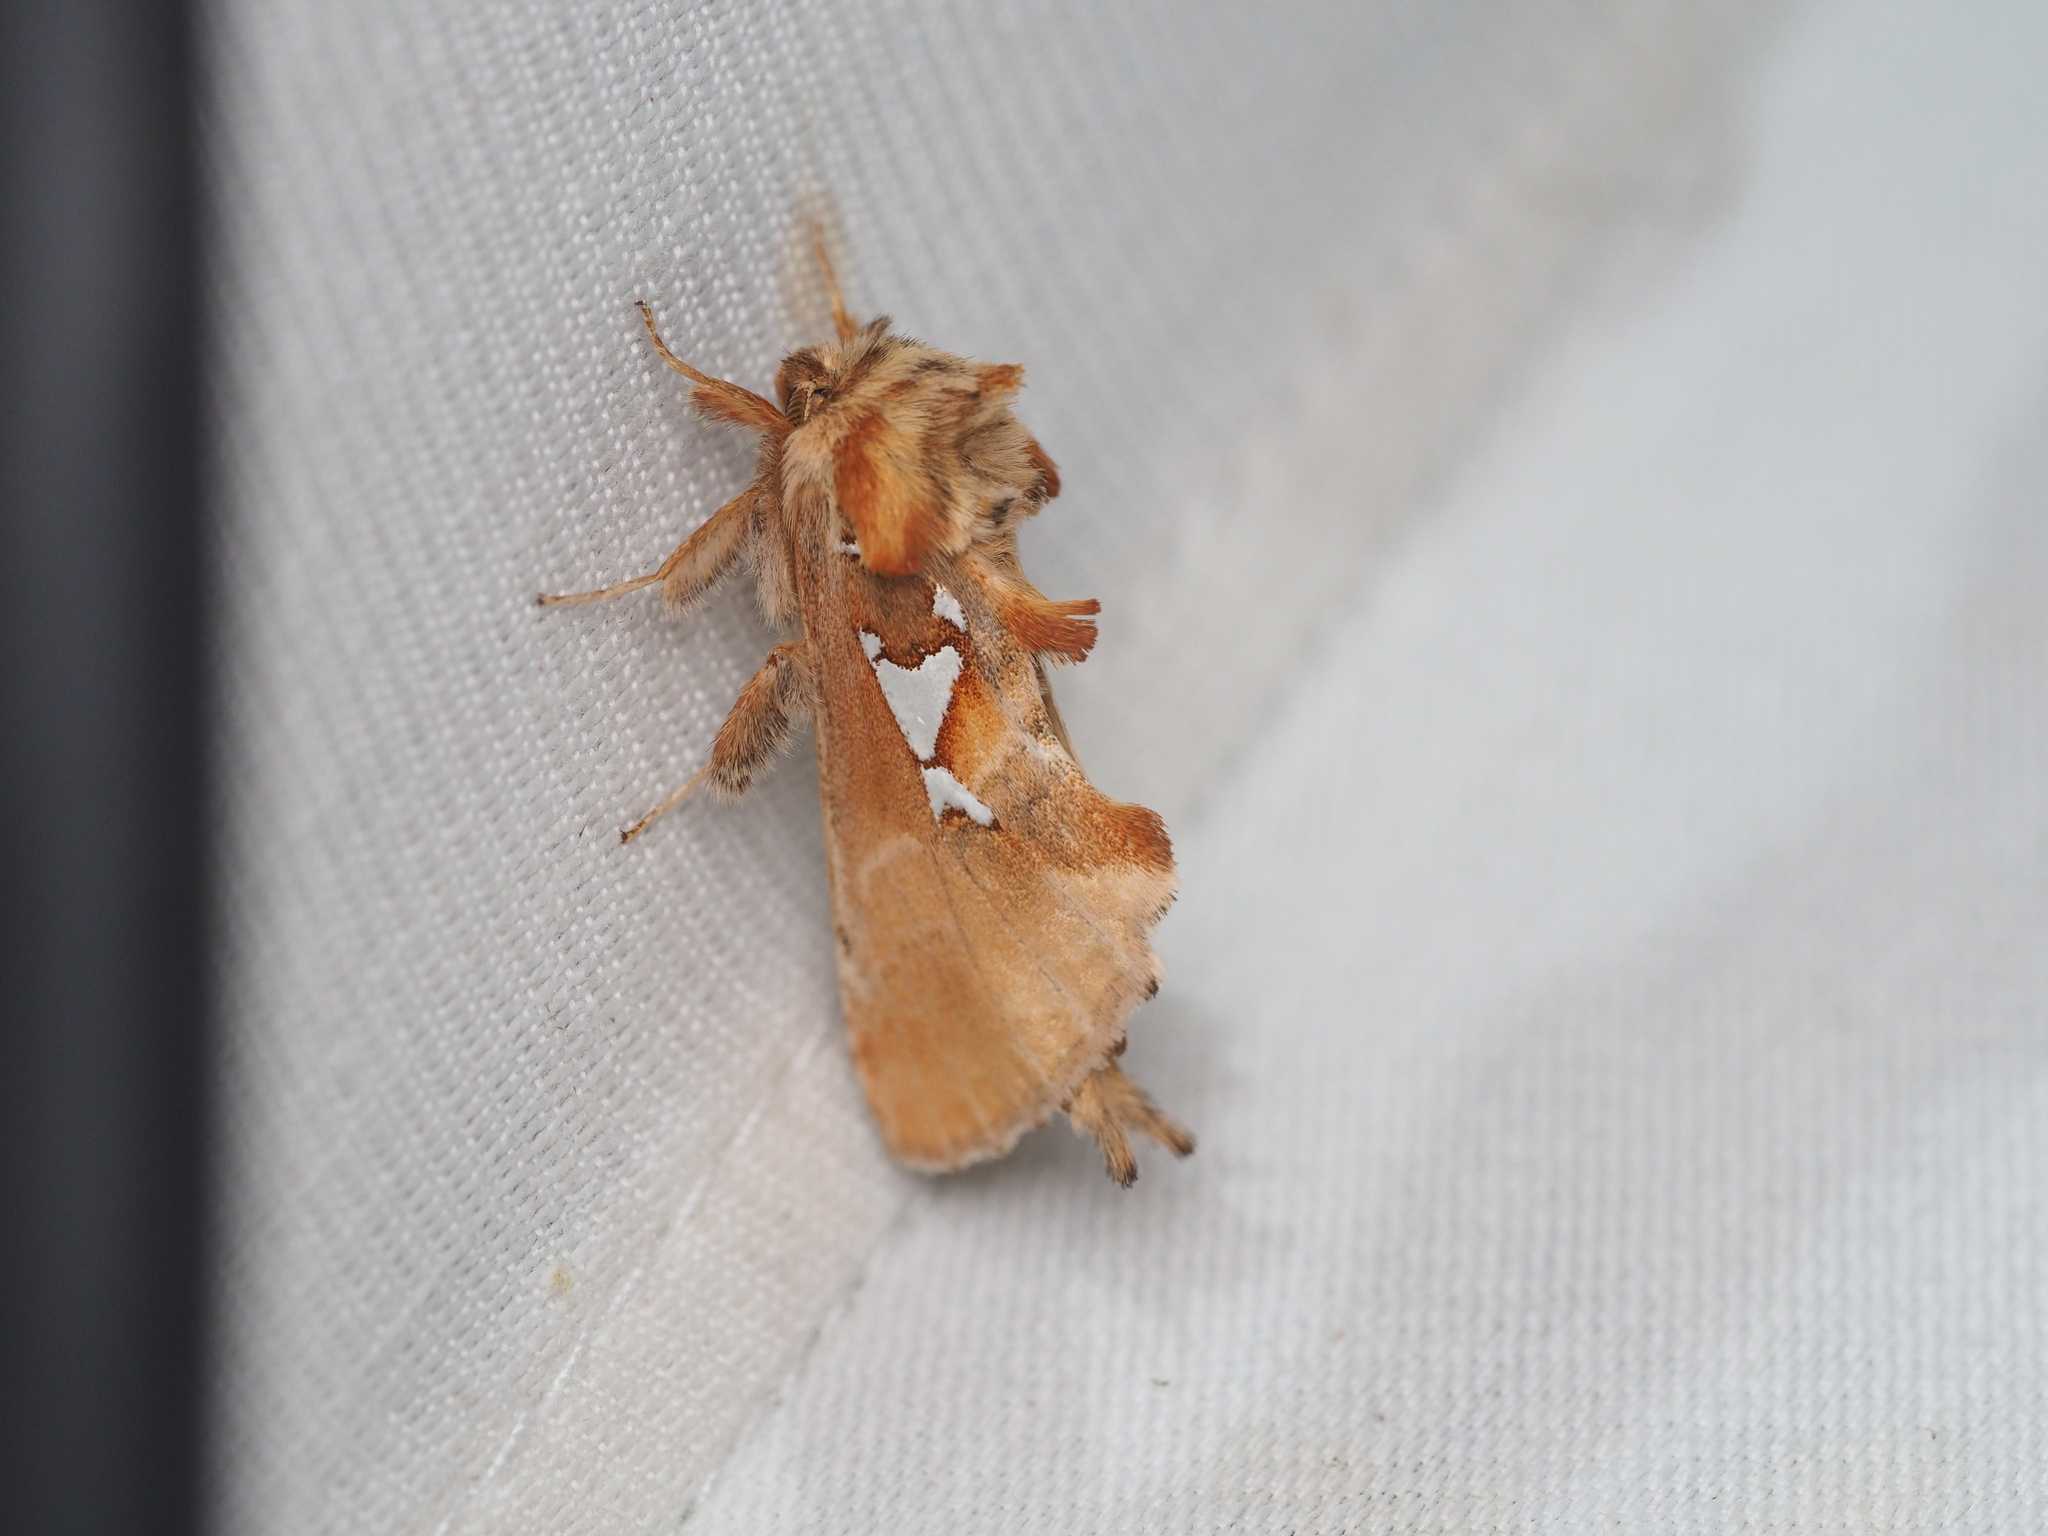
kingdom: Animalia
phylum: Arthropoda
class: Insecta
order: Lepidoptera
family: Notodontidae
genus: Spatalia
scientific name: Spatalia argentina
